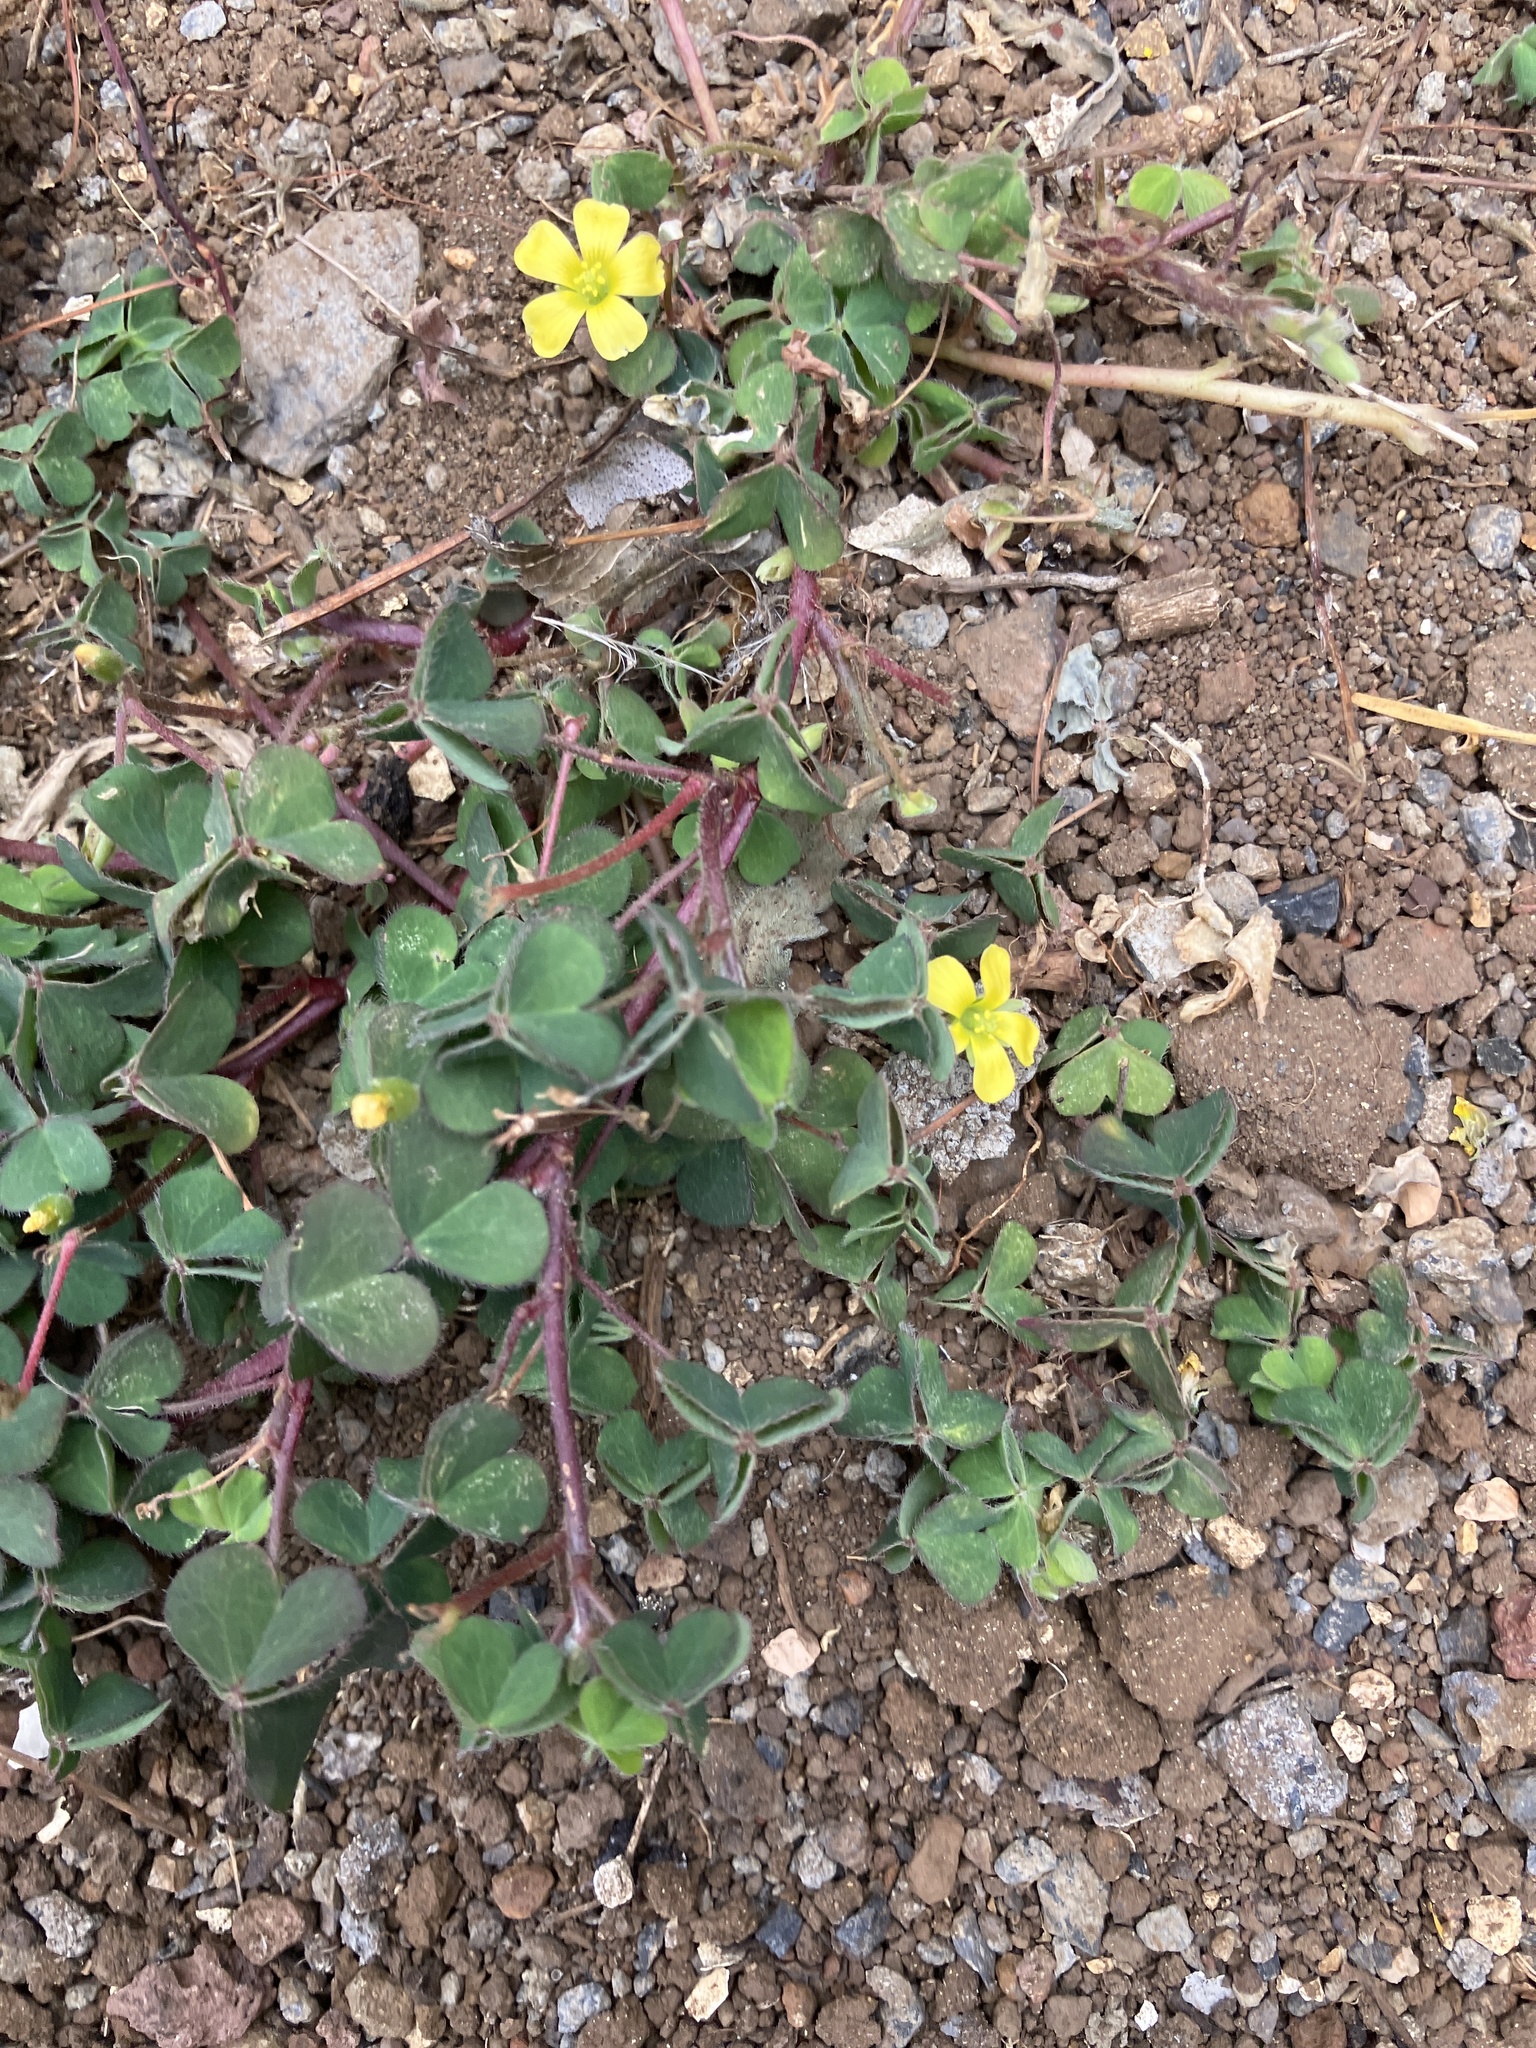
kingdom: Plantae
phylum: Tracheophyta
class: Magnoliopsida
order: Oxalidales
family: Oxalidaceae
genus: Oxalis
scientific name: Oxalis corniculata
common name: Procumbent yellow-sorrel
